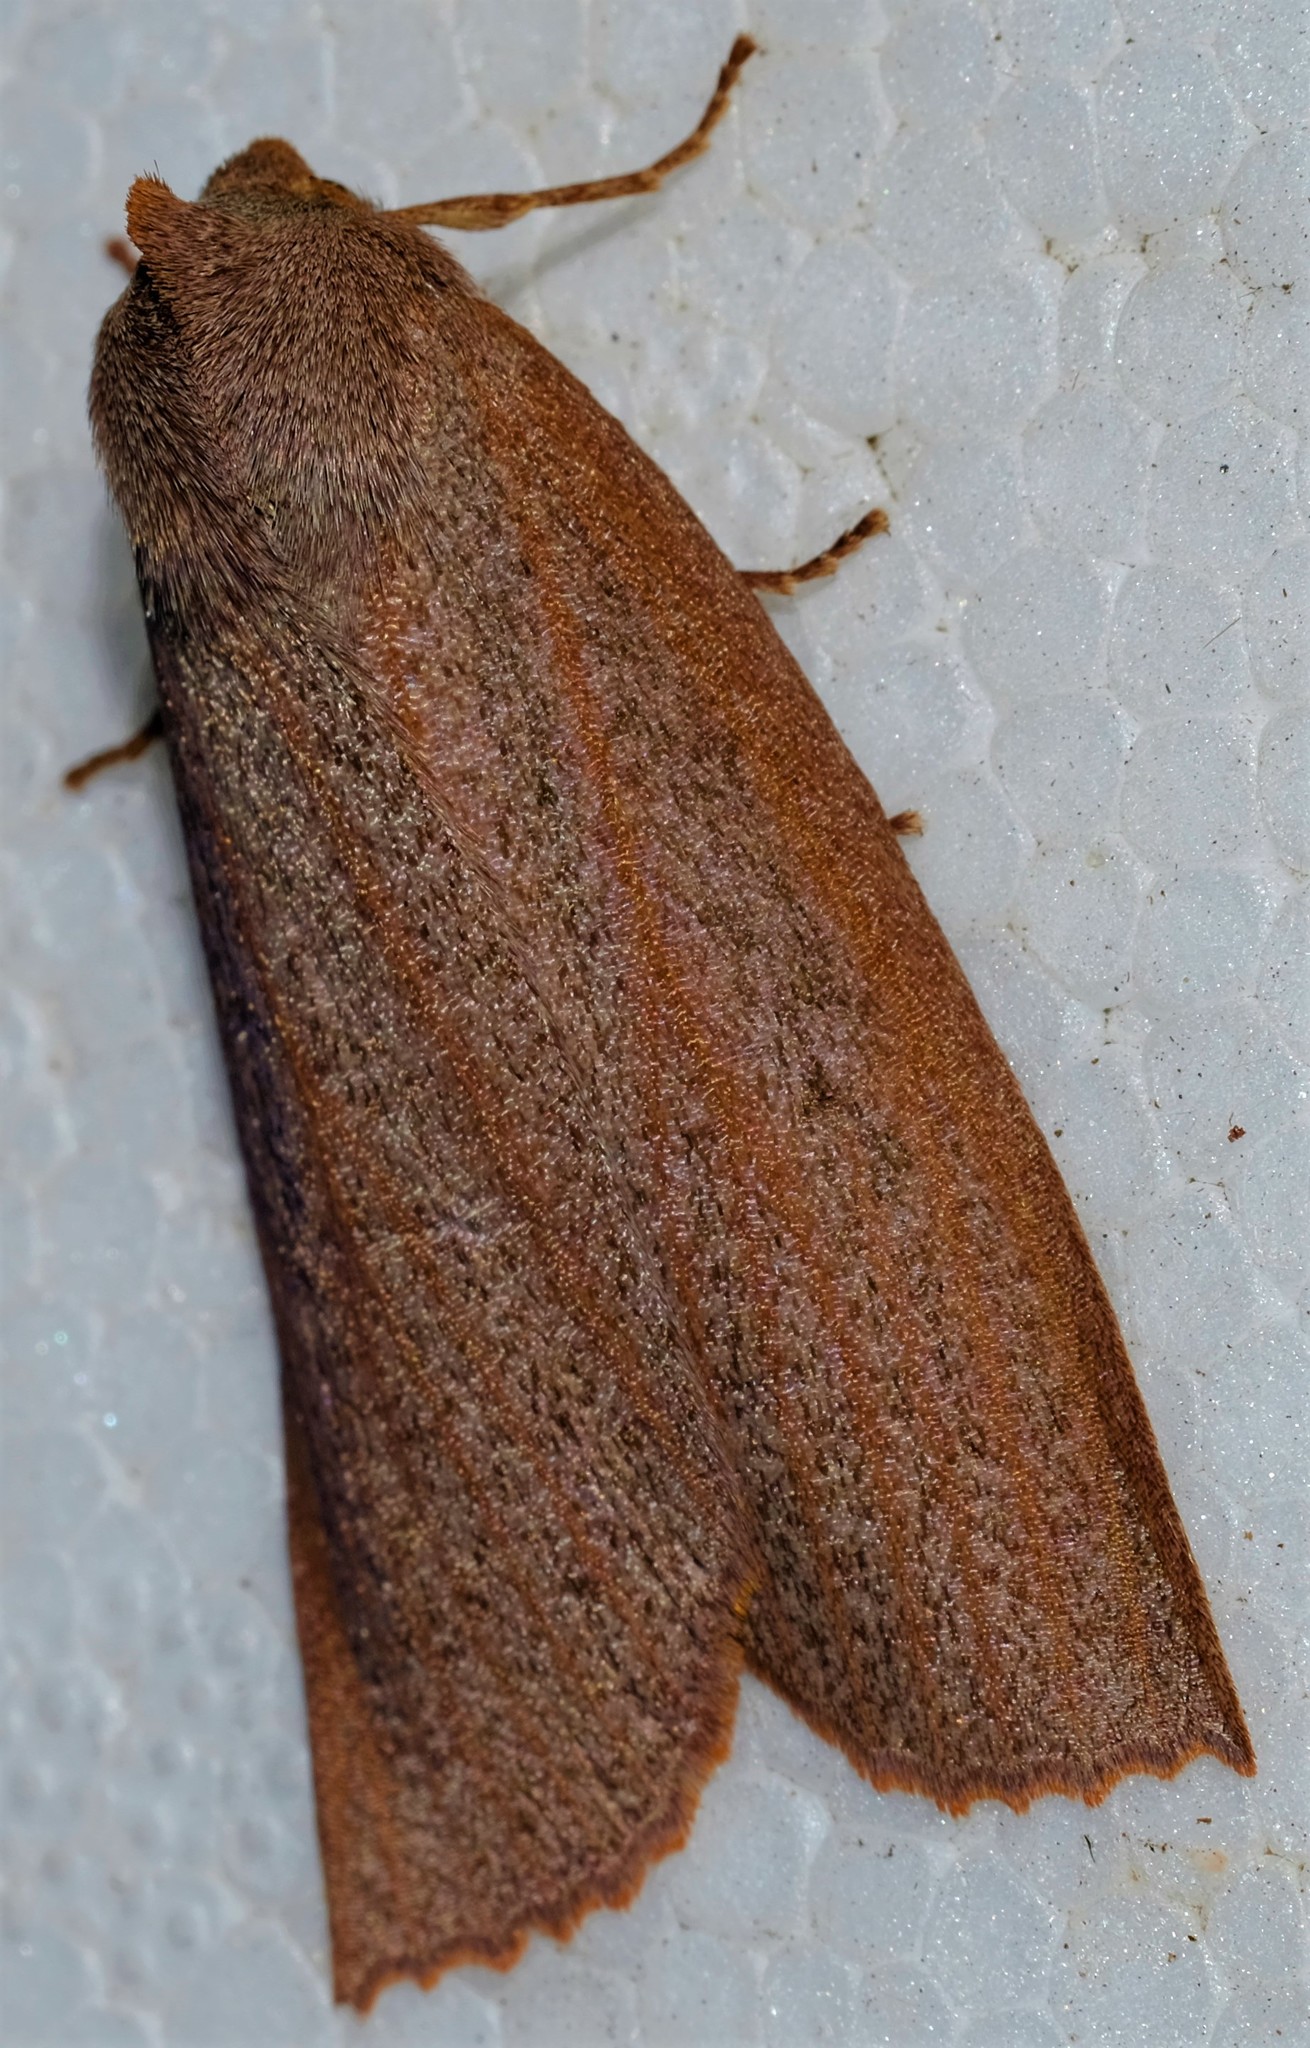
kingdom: Animalia
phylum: Arthropoda
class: Insecta
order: Lepidoptera
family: Geometridae
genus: Paralaea
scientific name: Paralaea porphyrinaria
